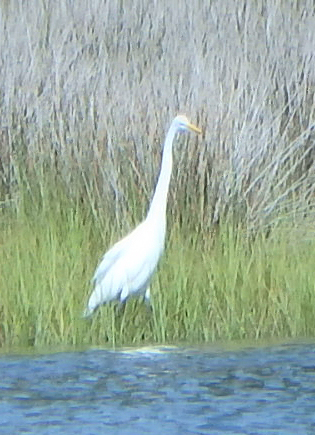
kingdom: Animalia
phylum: Chordata
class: Aves
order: Pelecaniformes
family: Ardeidae
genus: Ardea
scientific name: Ardea alba
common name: Great egret
